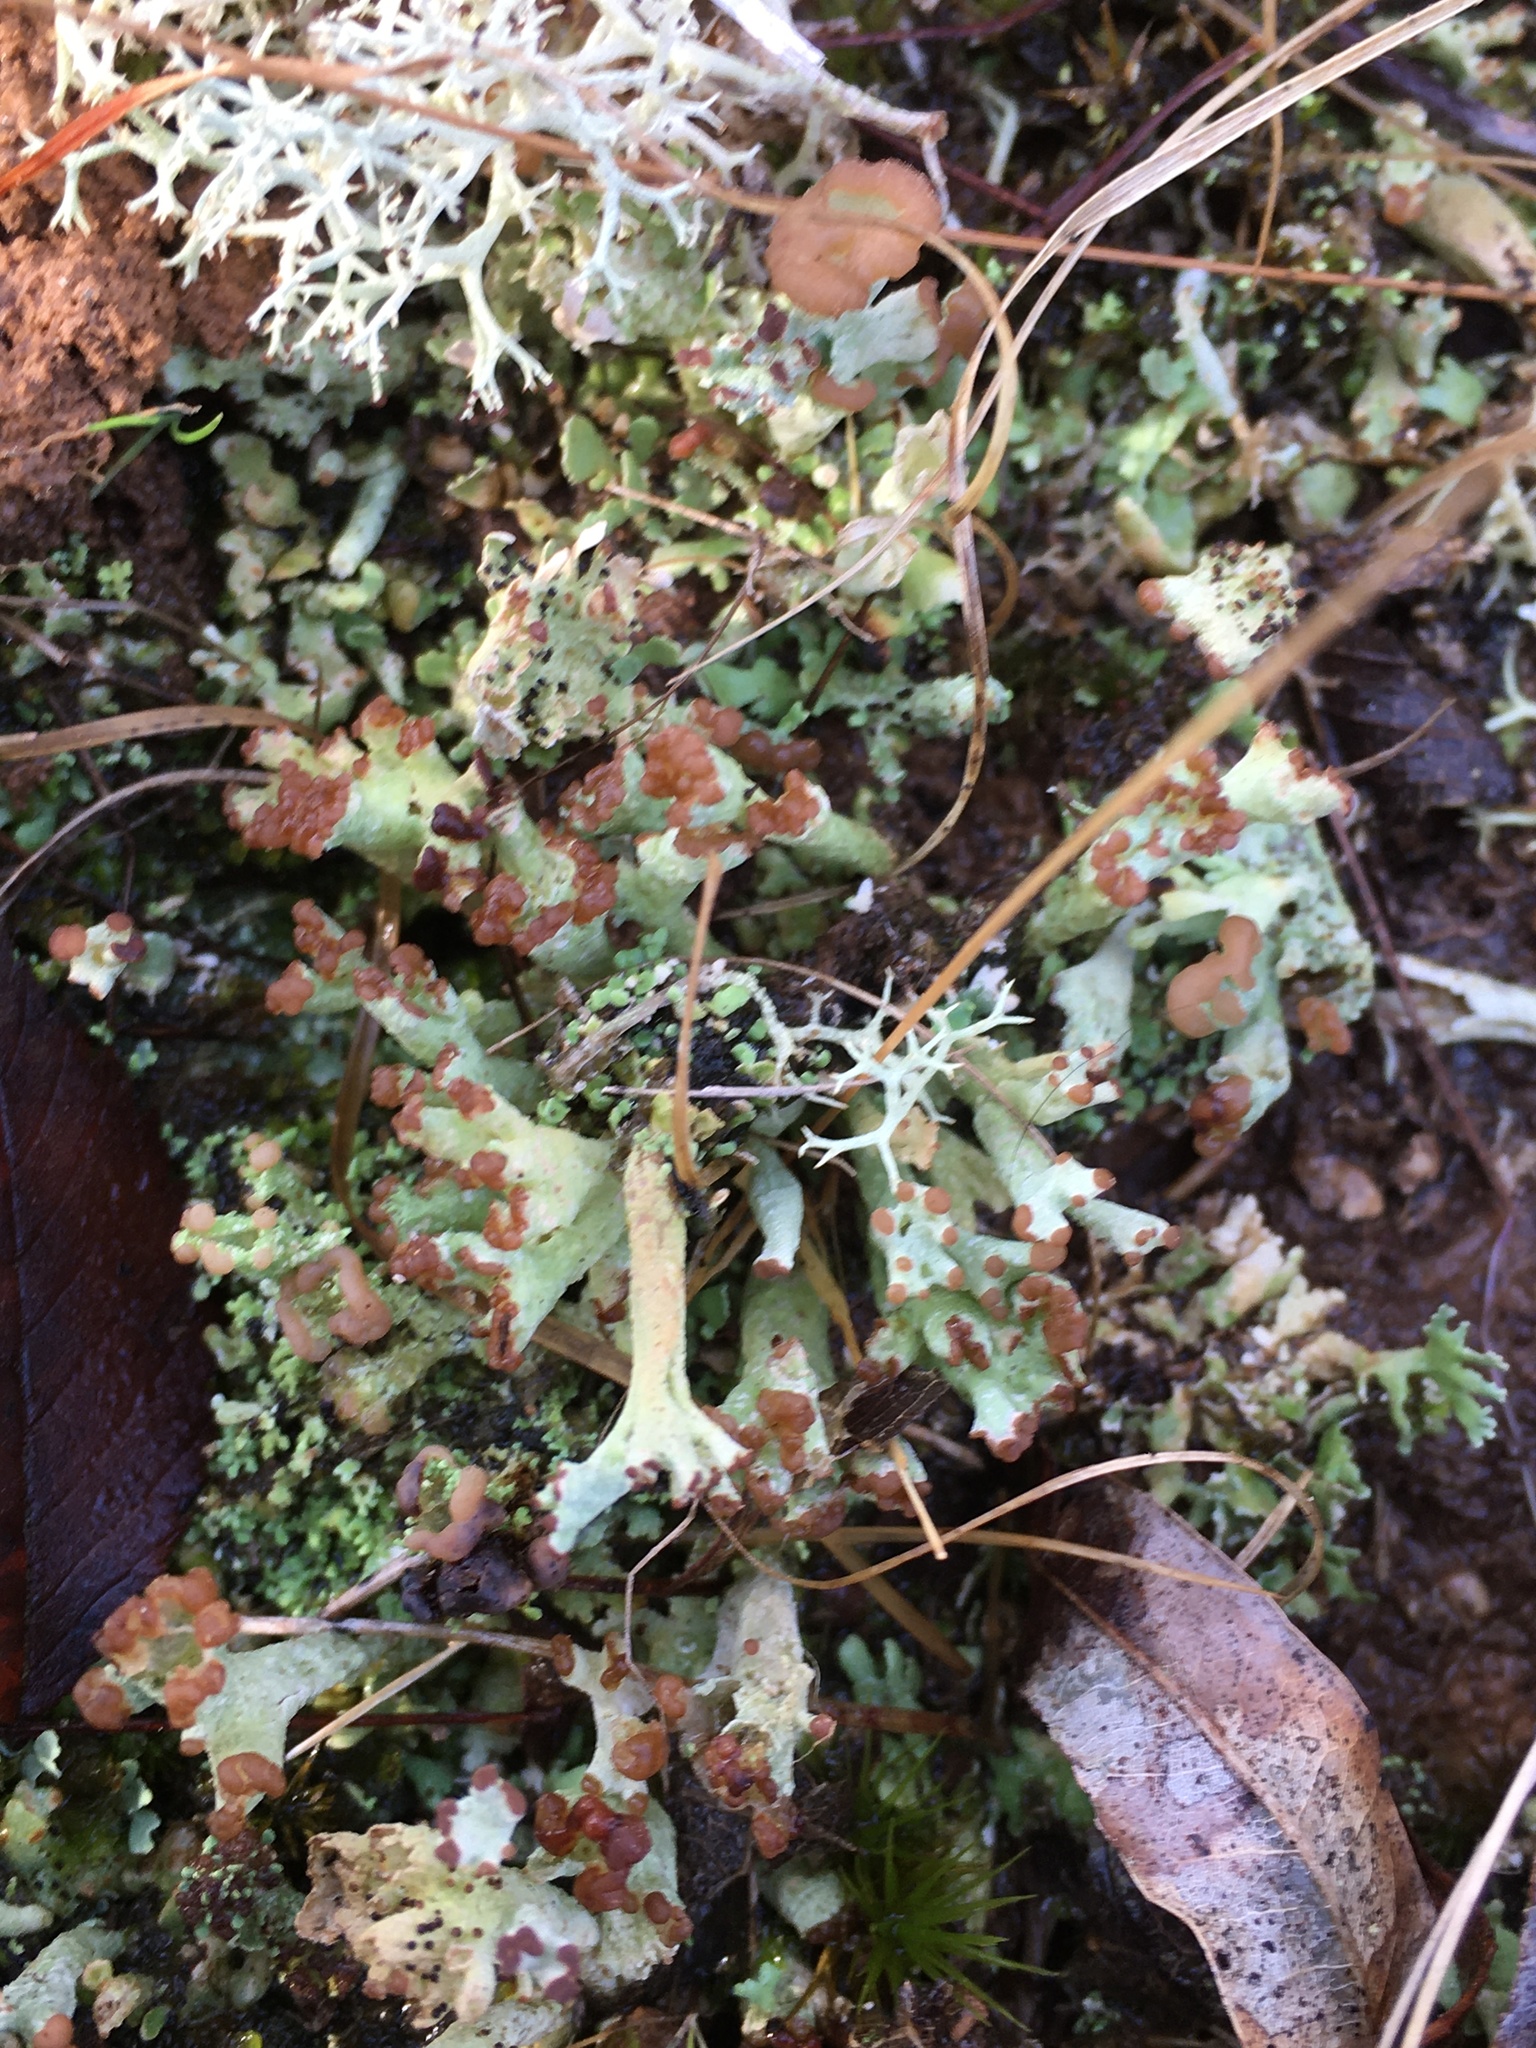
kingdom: Fungi
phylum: Ascomycota
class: Lecanoromycetes
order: Lecanorales
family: Cladoniaceae
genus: Cladonia
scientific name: Cladonia peziziformis
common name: Cup lichen
